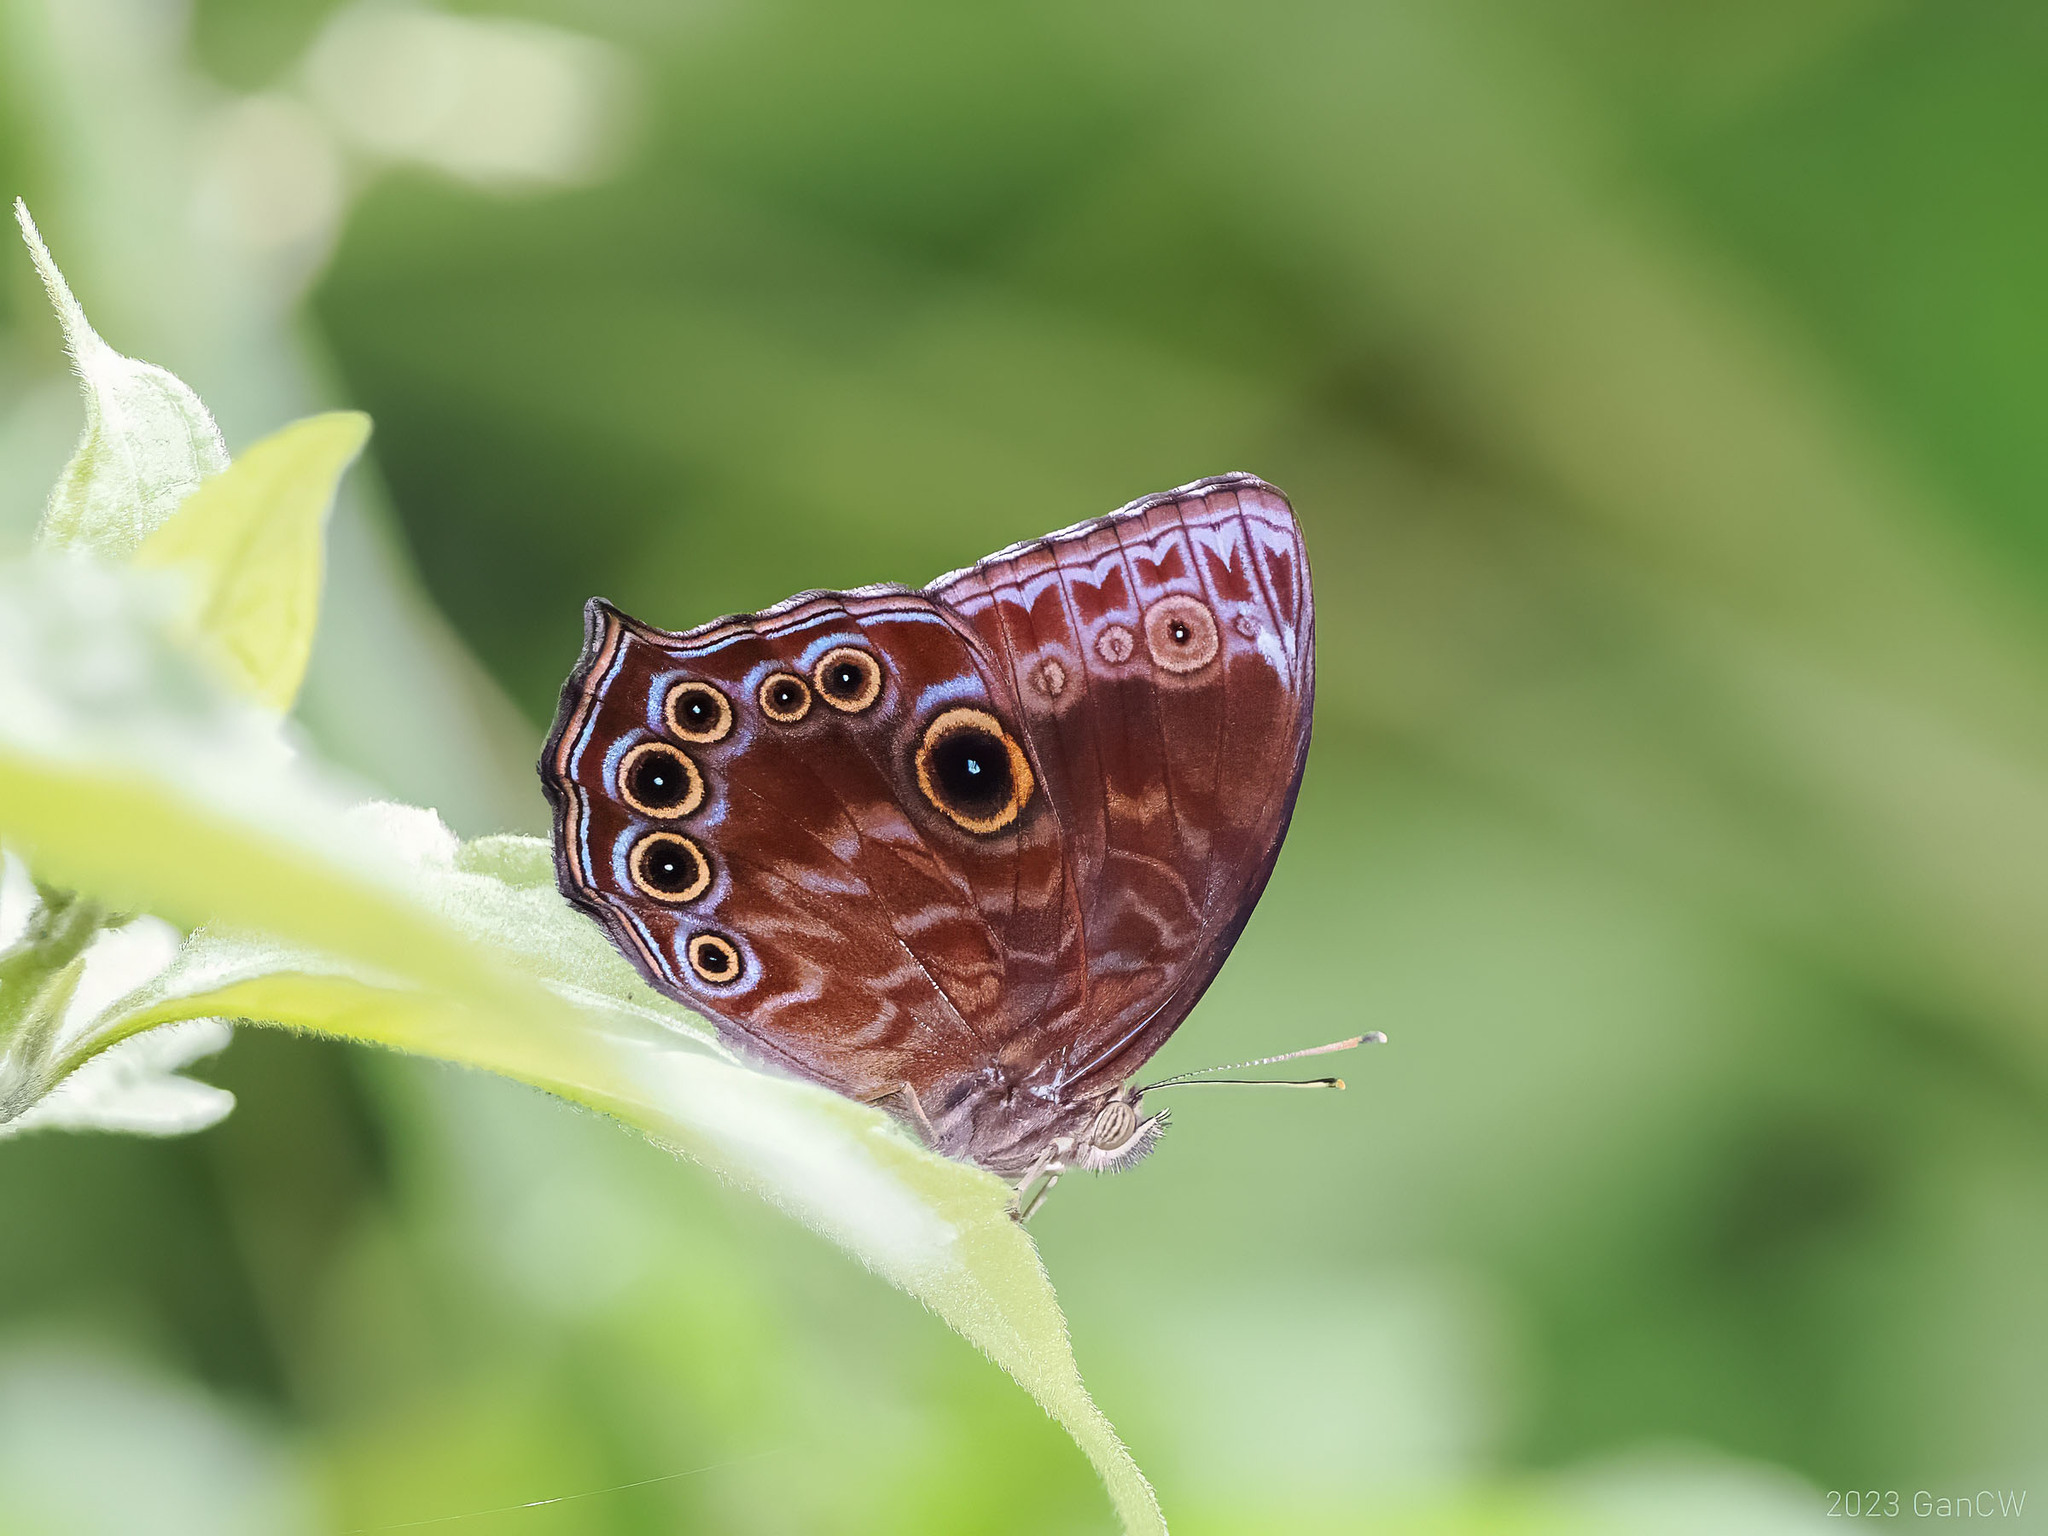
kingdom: Animalia
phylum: Arthropoda
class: Insecta
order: Lepidoptera
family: Nymphalidae
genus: Ptychandra
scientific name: Ptychandra lorquinii
